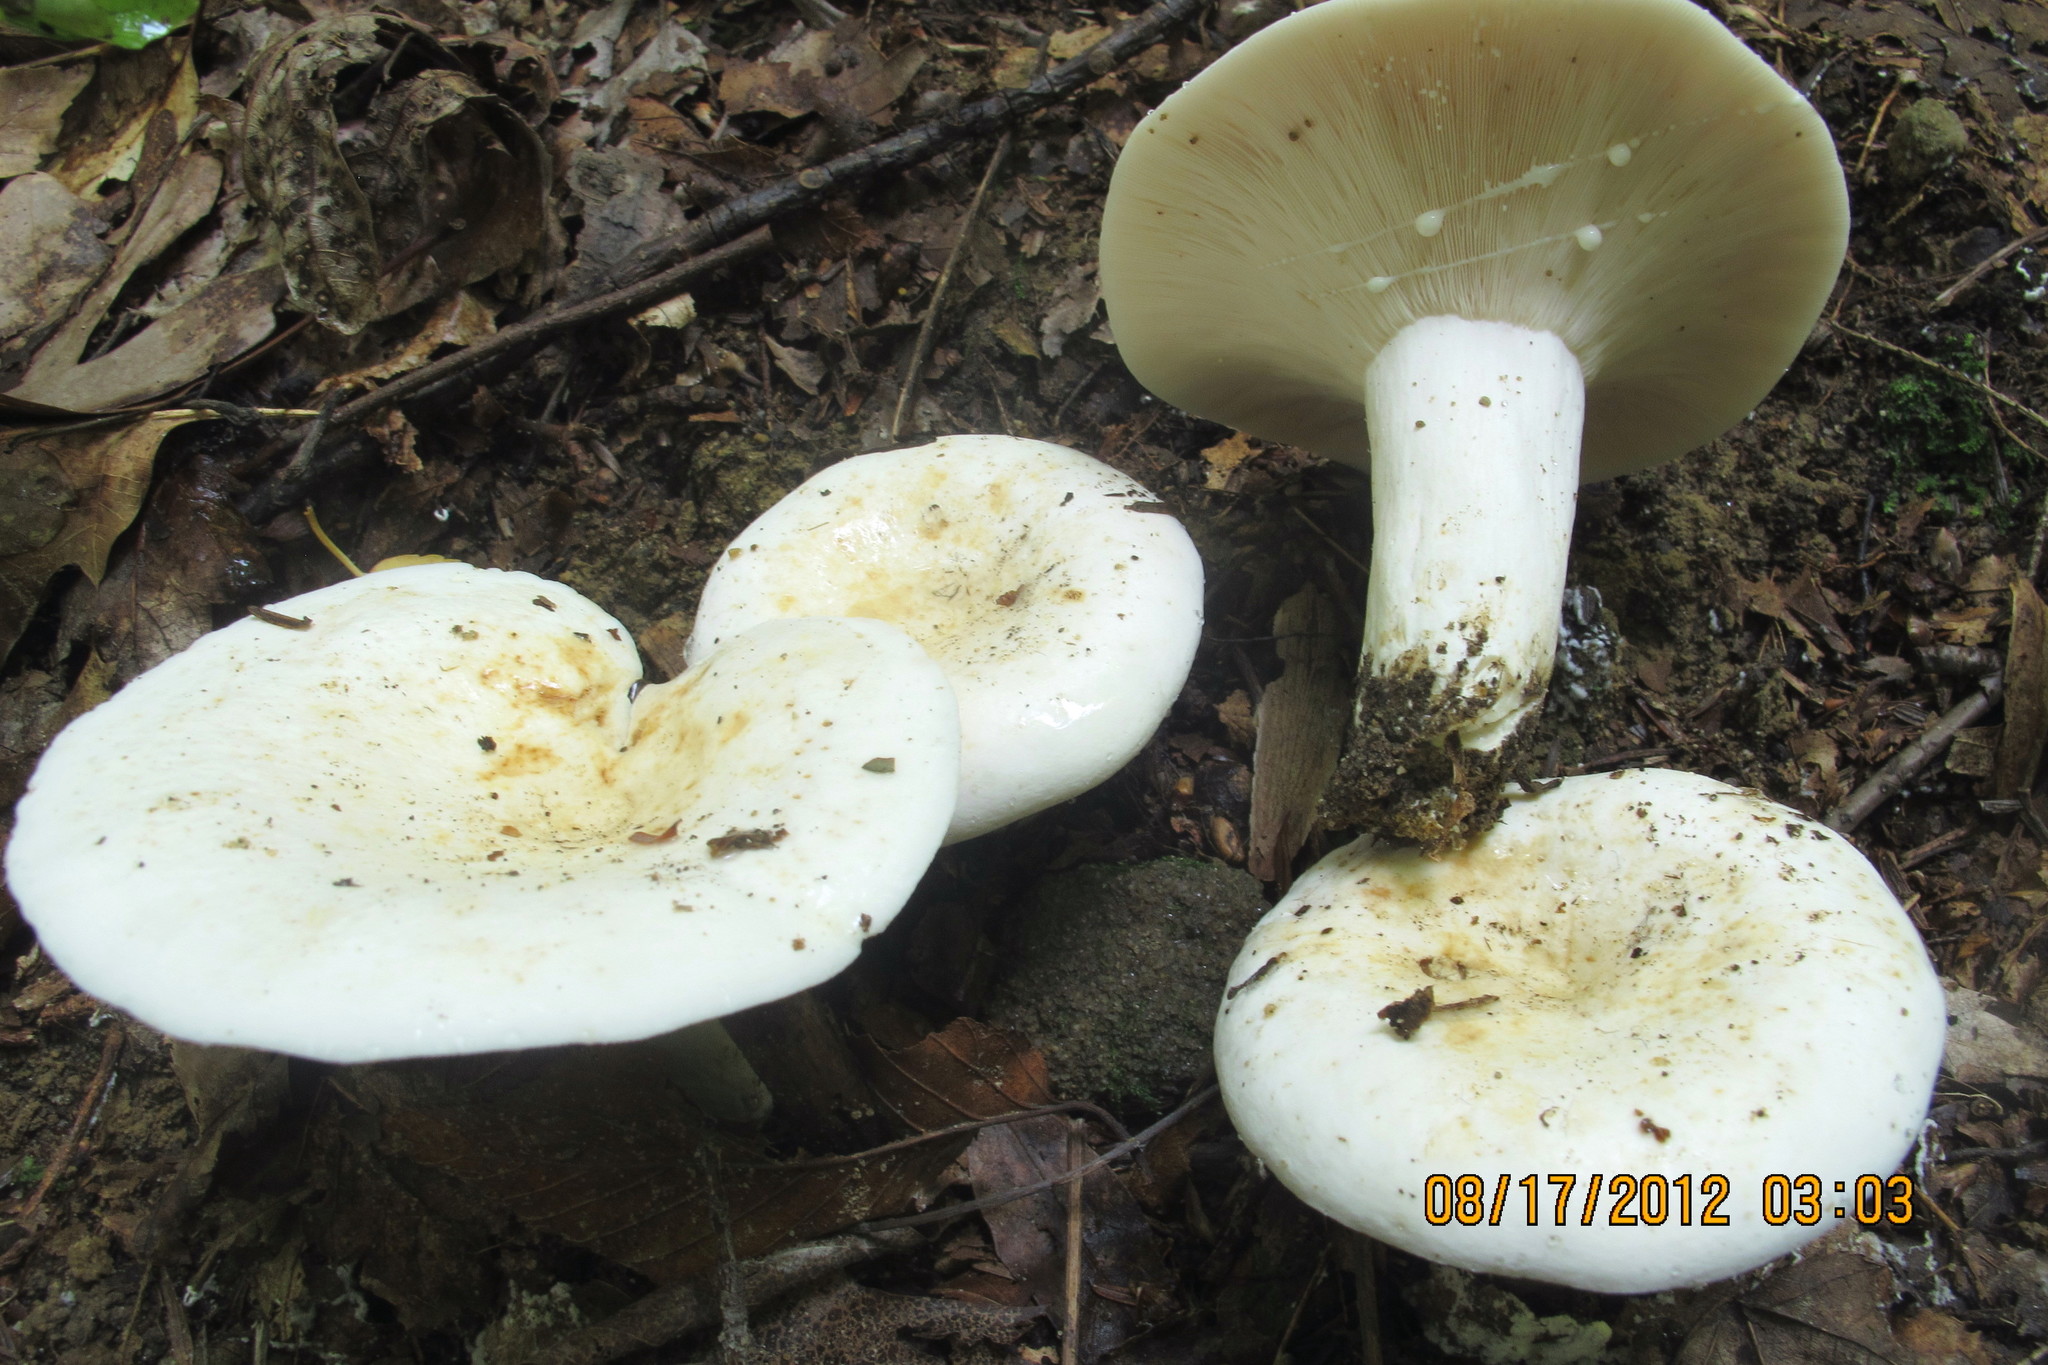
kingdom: Fungi
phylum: Basidiomycota
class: Agaricomycetes
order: Russulales
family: Russulaceae
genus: Lactifluus
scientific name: Lactifluus piperatus
